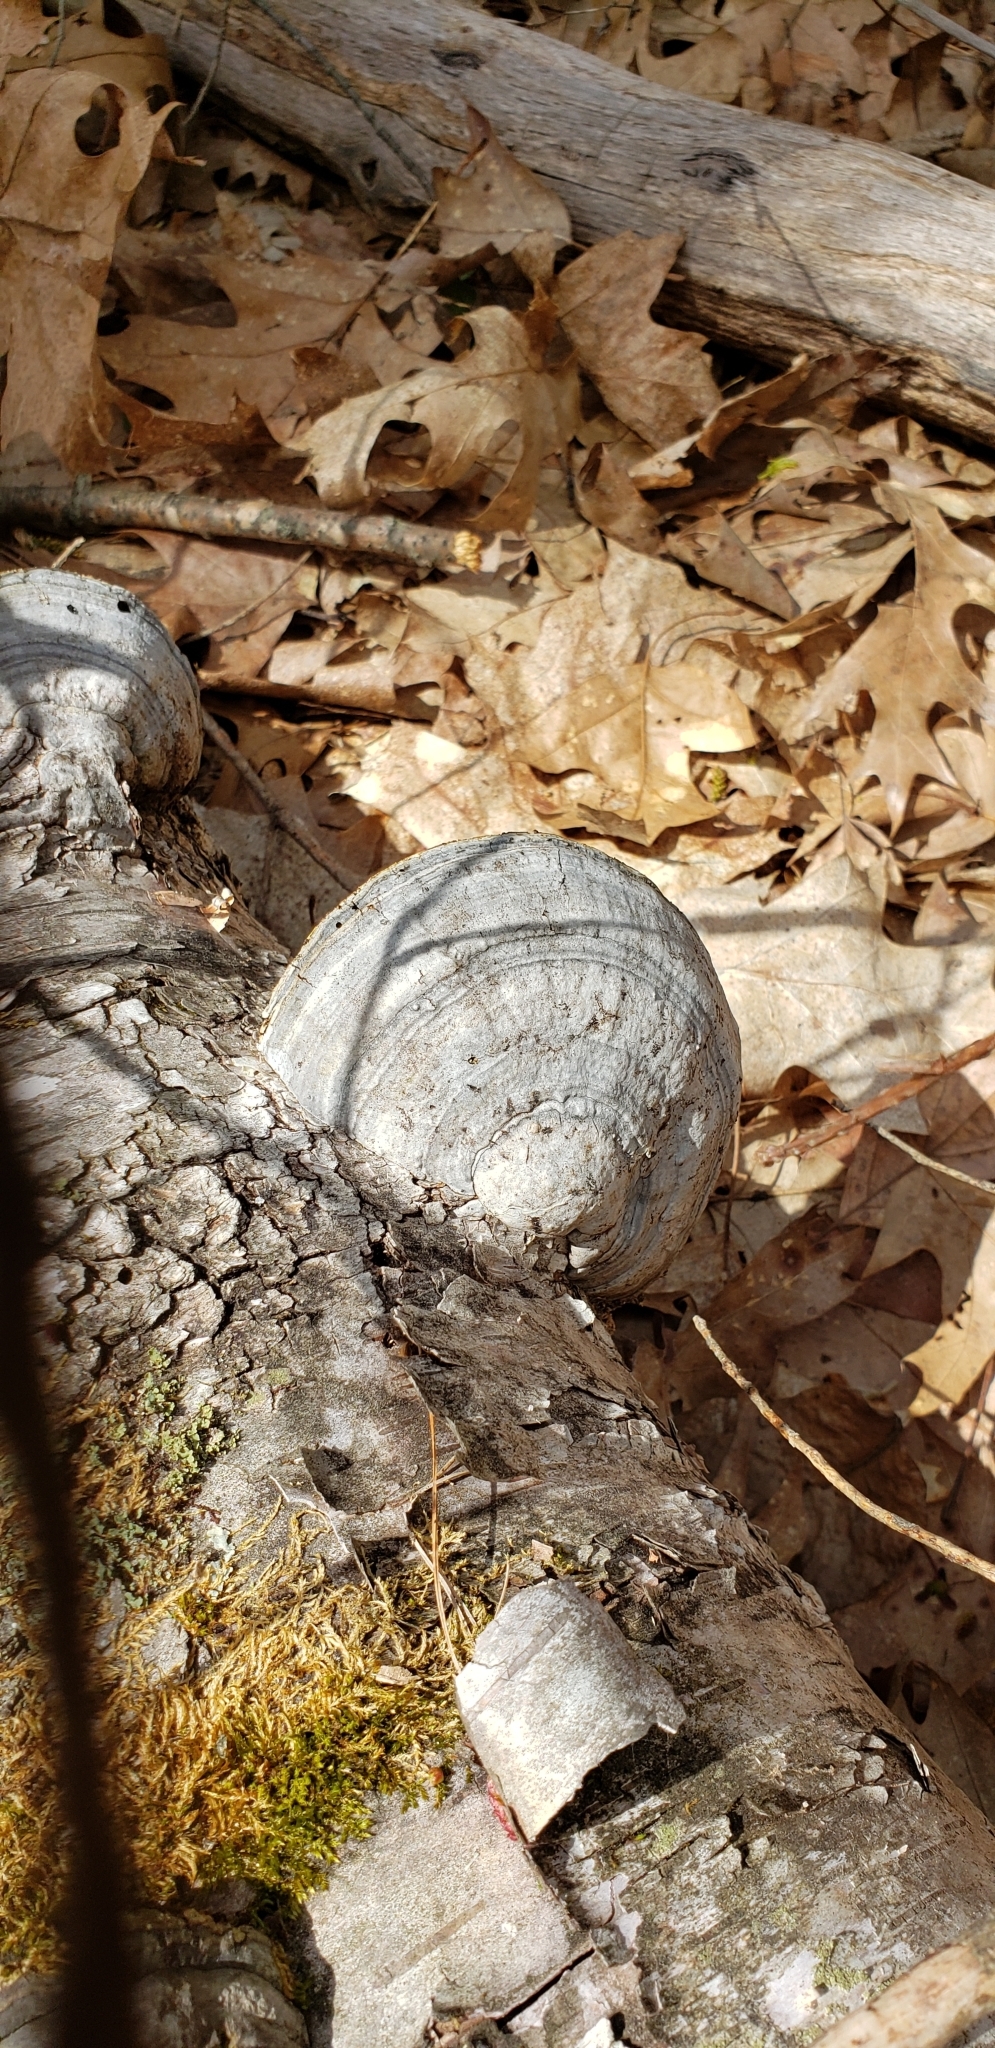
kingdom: Fungi
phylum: Basidiomycota
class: Agaricomycetes
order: Polyporales
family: Polyporaceae
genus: Fomes
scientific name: Fomes fomentarius
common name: Hoof fungus
